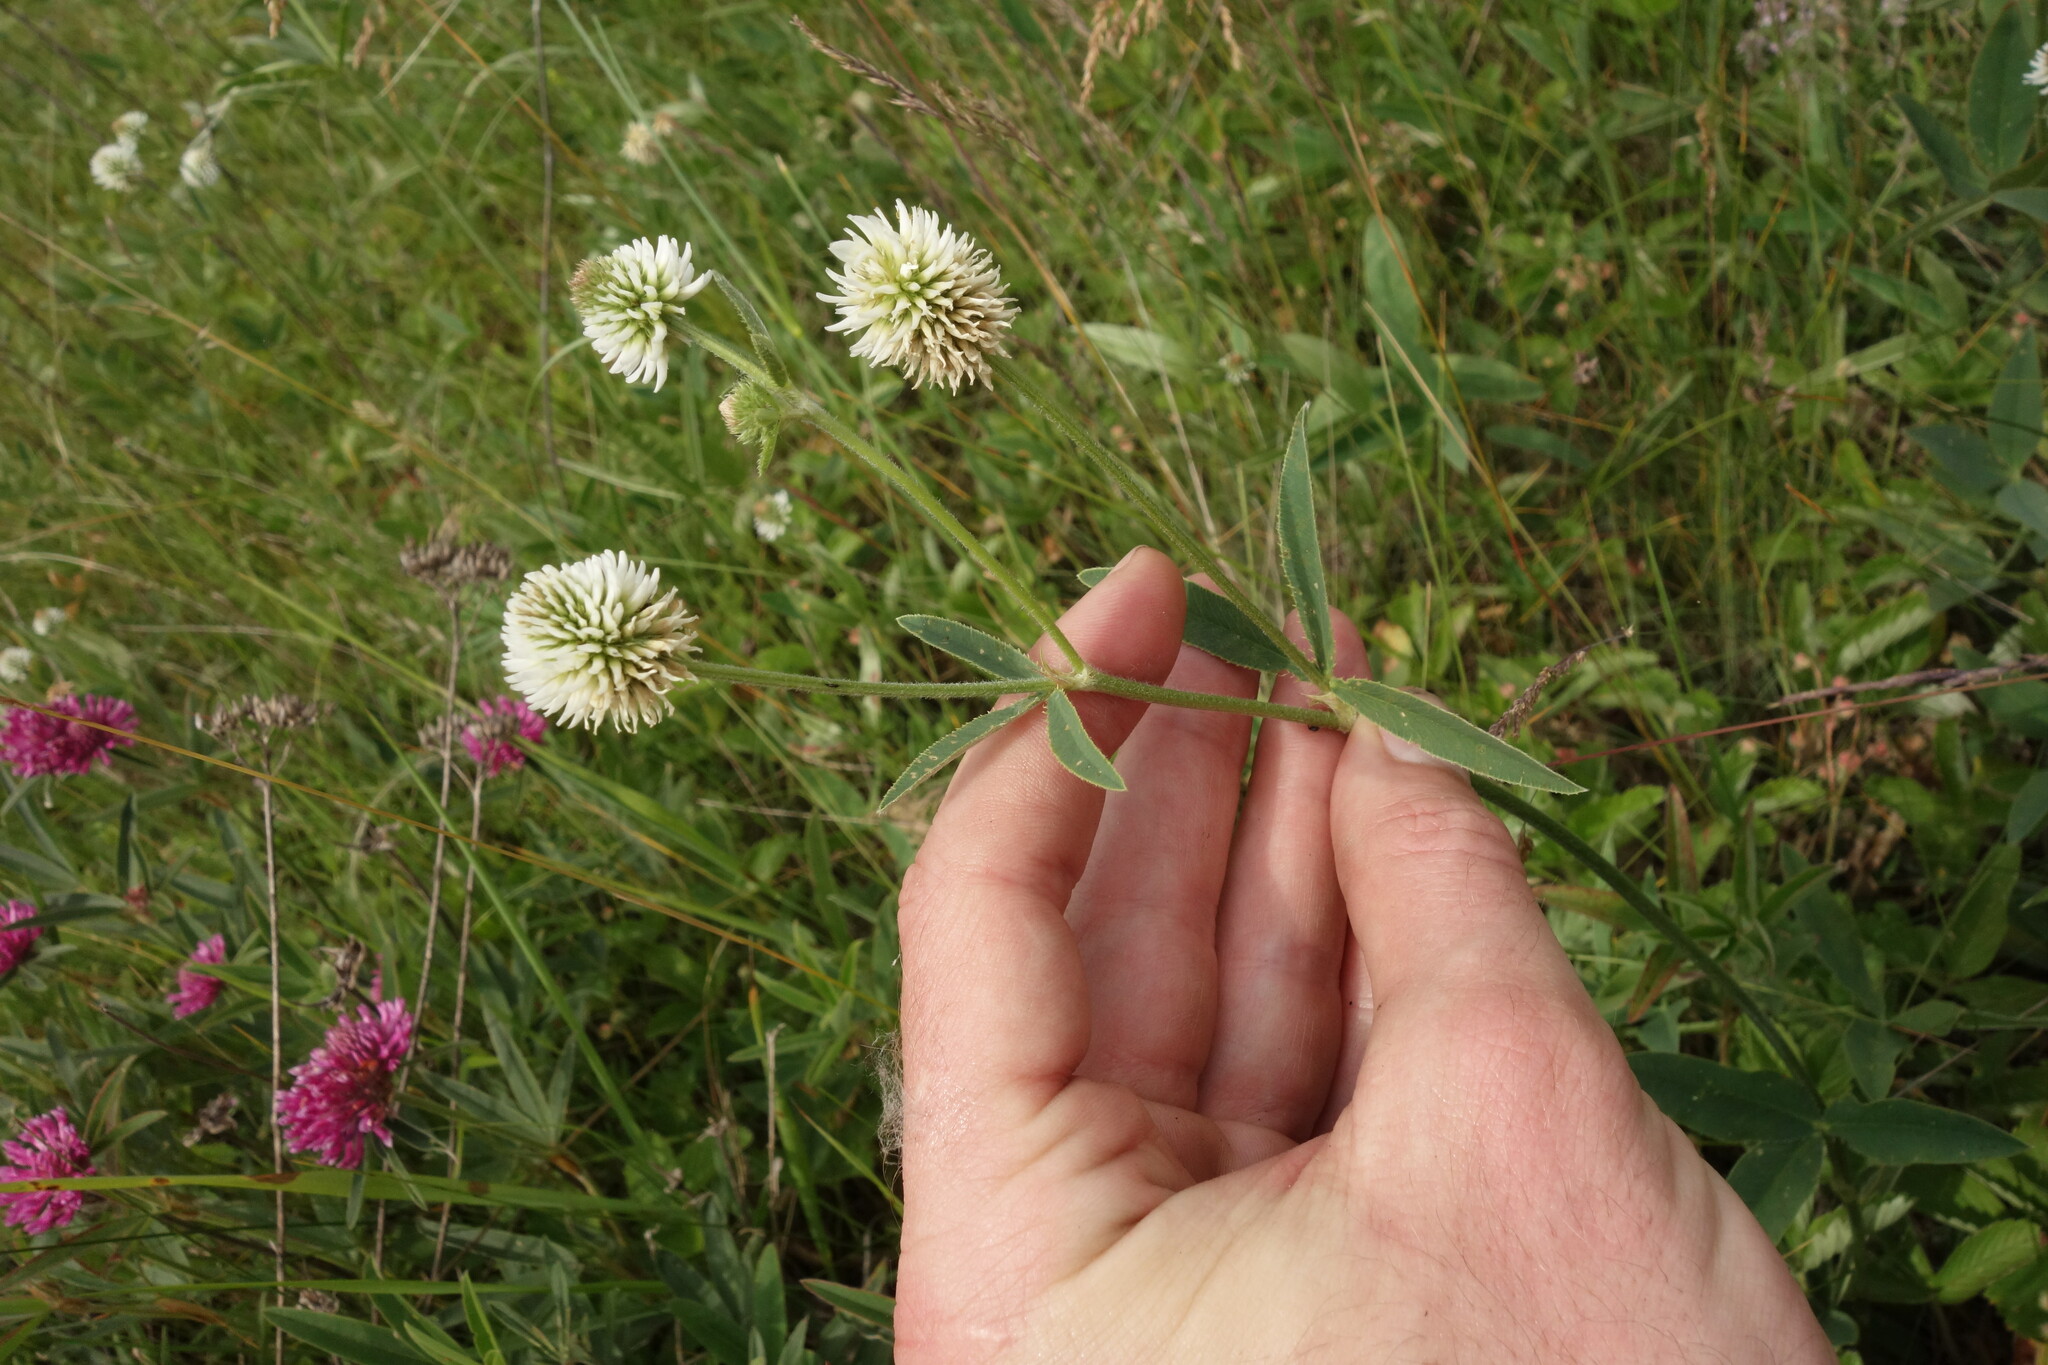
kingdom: Plantae
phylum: Tracheophyta
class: Magnoliopsida
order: Fabales
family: Fabaceae
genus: Trifolium
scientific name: Trifolium montanum
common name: Mountain clover
